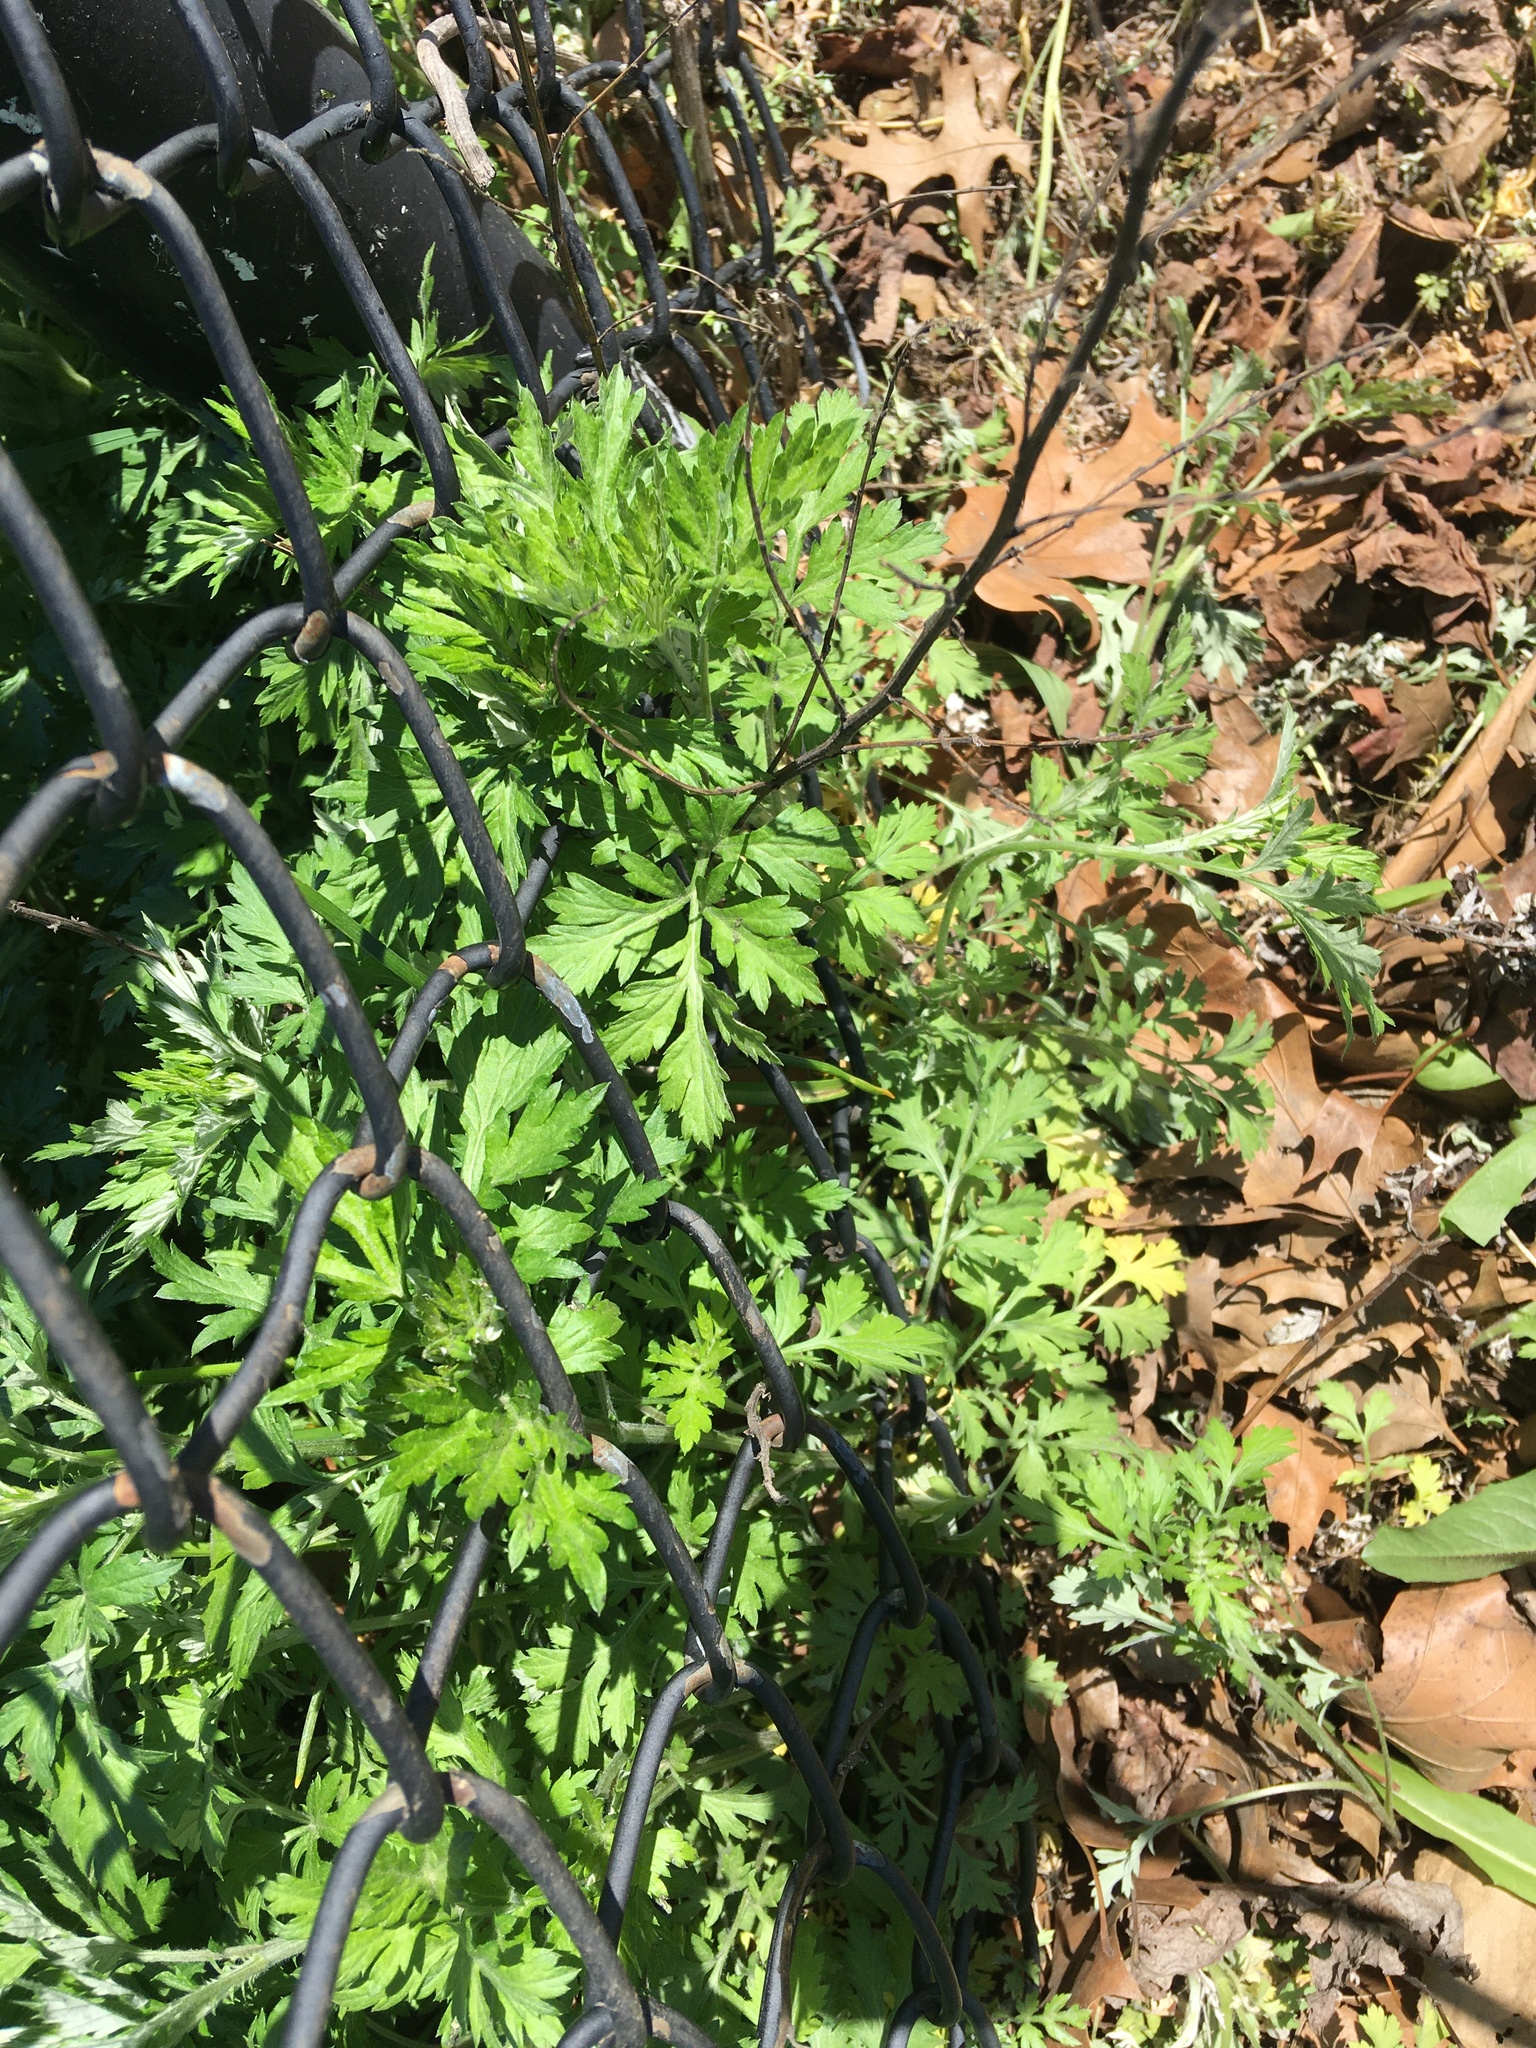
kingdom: Plantae
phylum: Tracheophyta
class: Magnoliopsida
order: Asterales
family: Asteraceae
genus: Artemisia
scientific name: Artemisia vulgaris
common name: Mugwort
